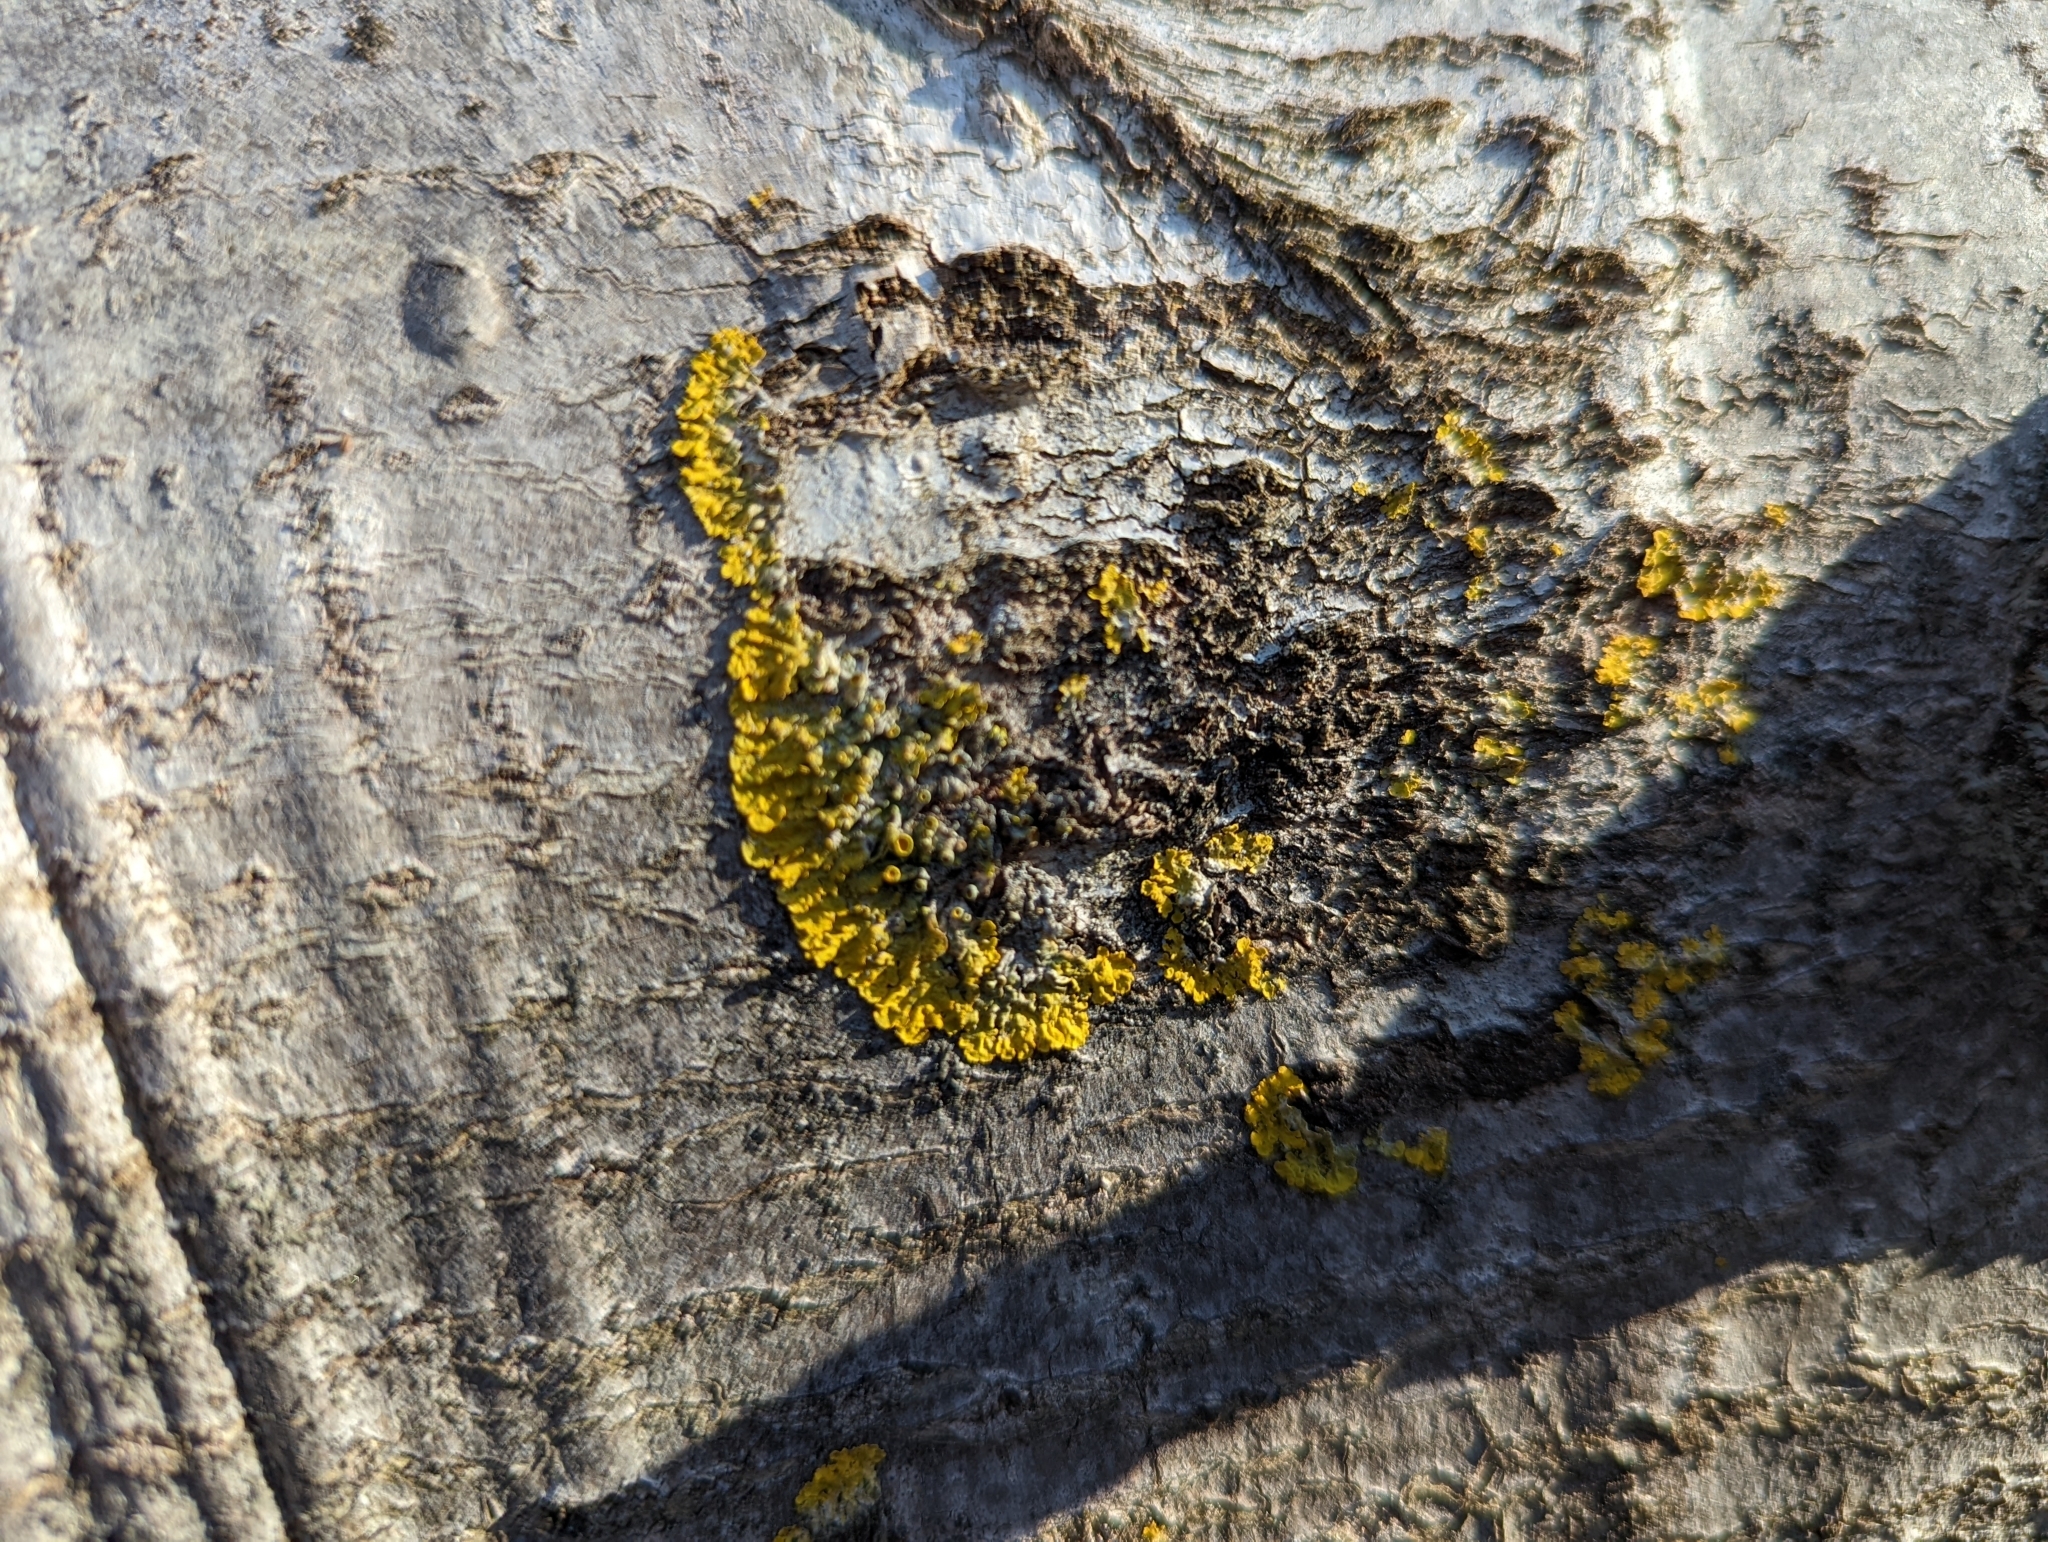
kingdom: Fungi
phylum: Ascomycota
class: Lecanoromycetes
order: Teloschistales
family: Teloschistaceae
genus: Xanthoria
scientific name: Xanthoria parietina
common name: Common orange lichen
